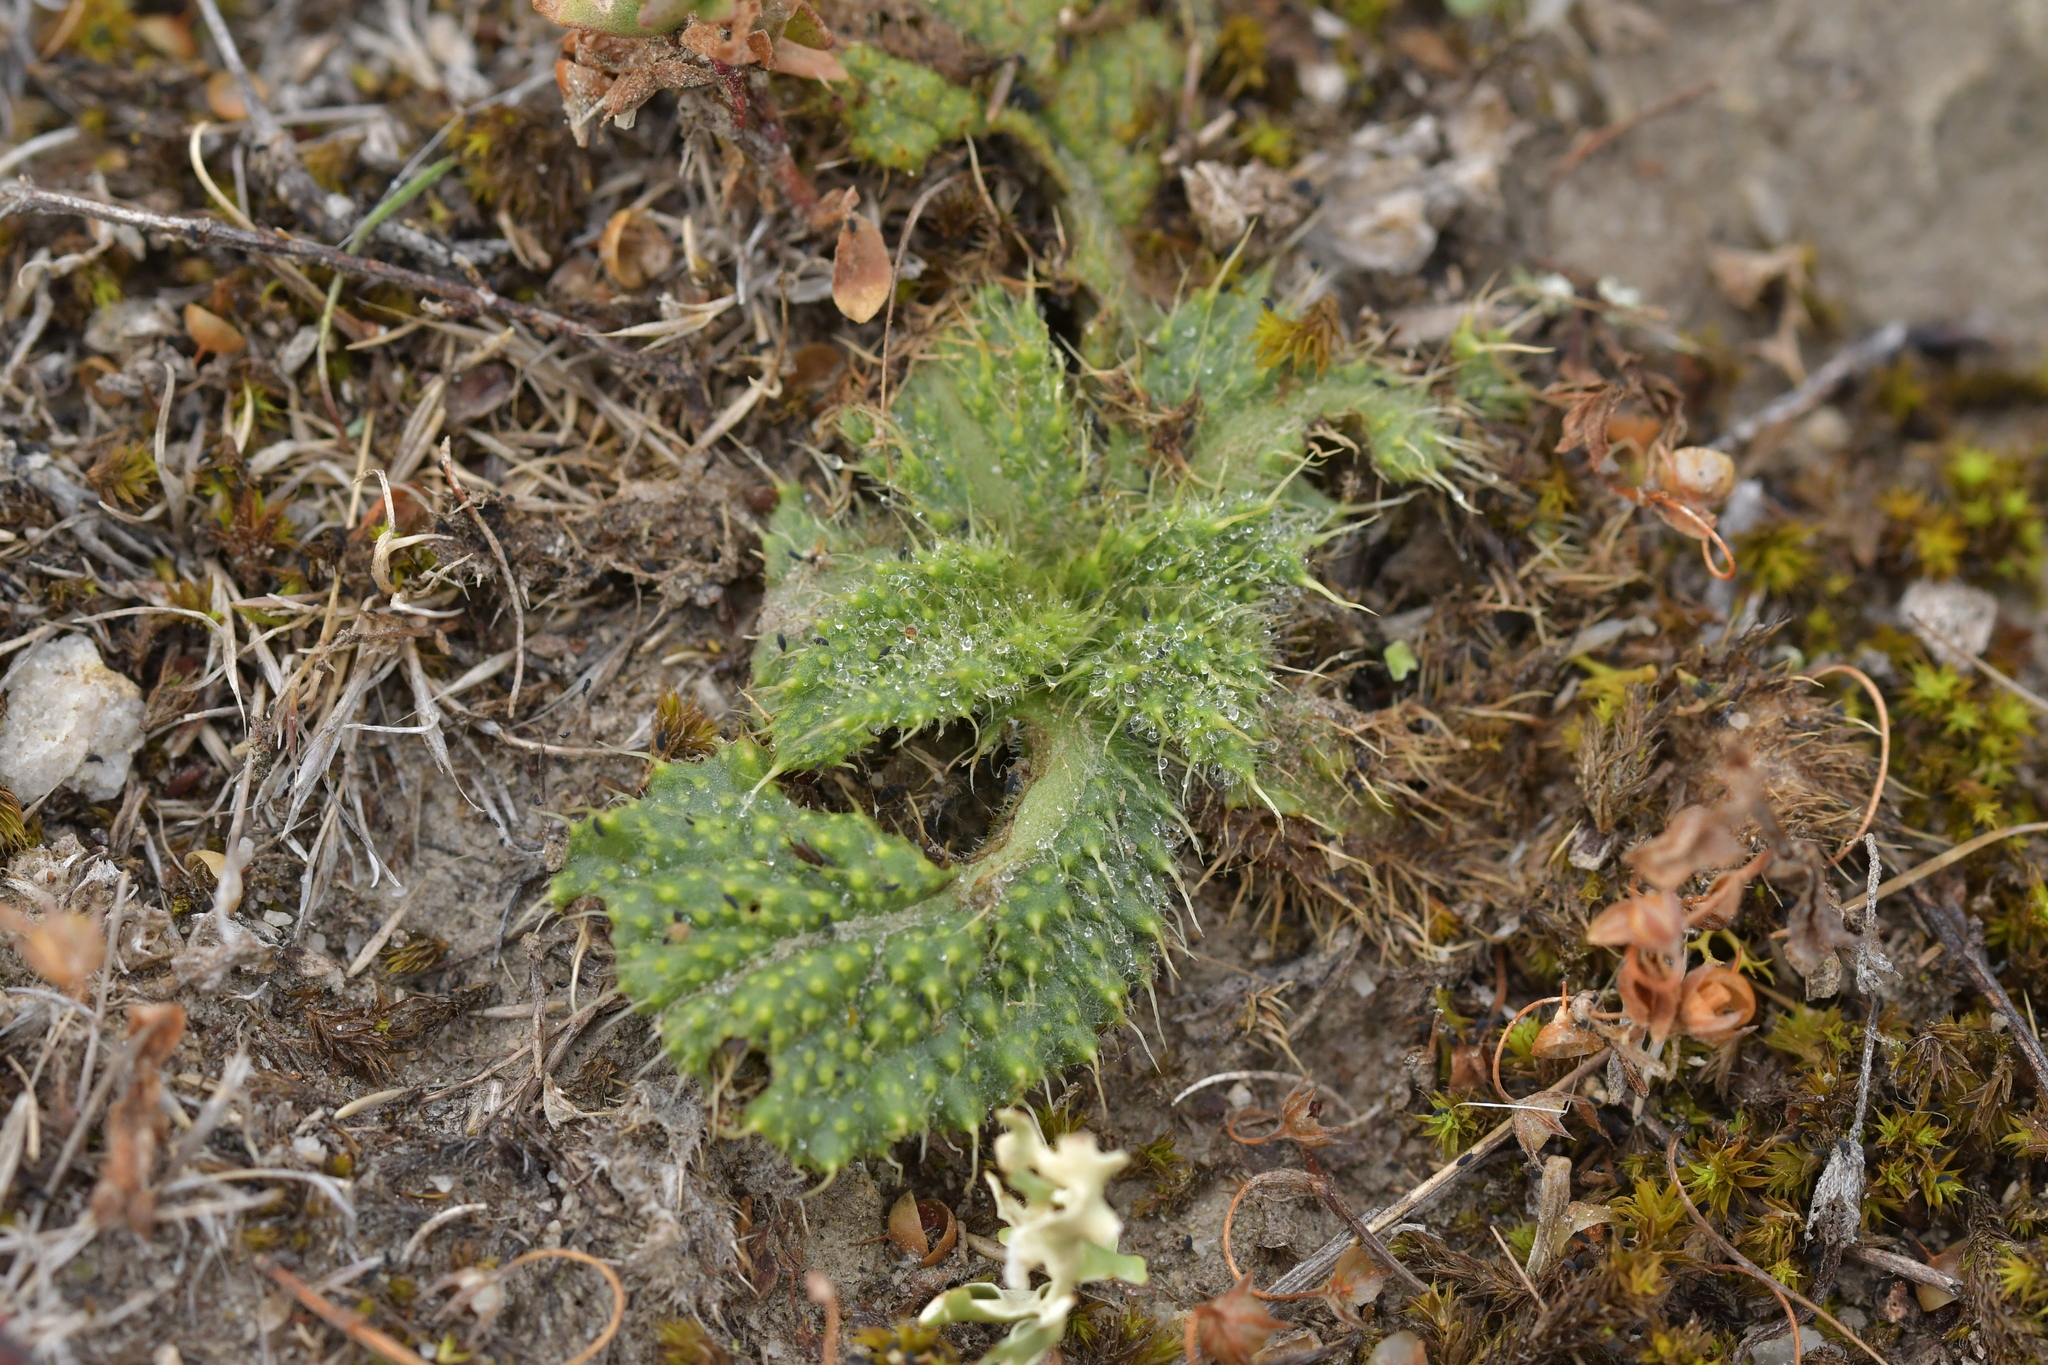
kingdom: Plantae
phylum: Tracheophyta
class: Magnoliopsida
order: Asterales
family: Asteraceae
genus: Cirsium
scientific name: Cirsium vulgare
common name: Bull thistle
